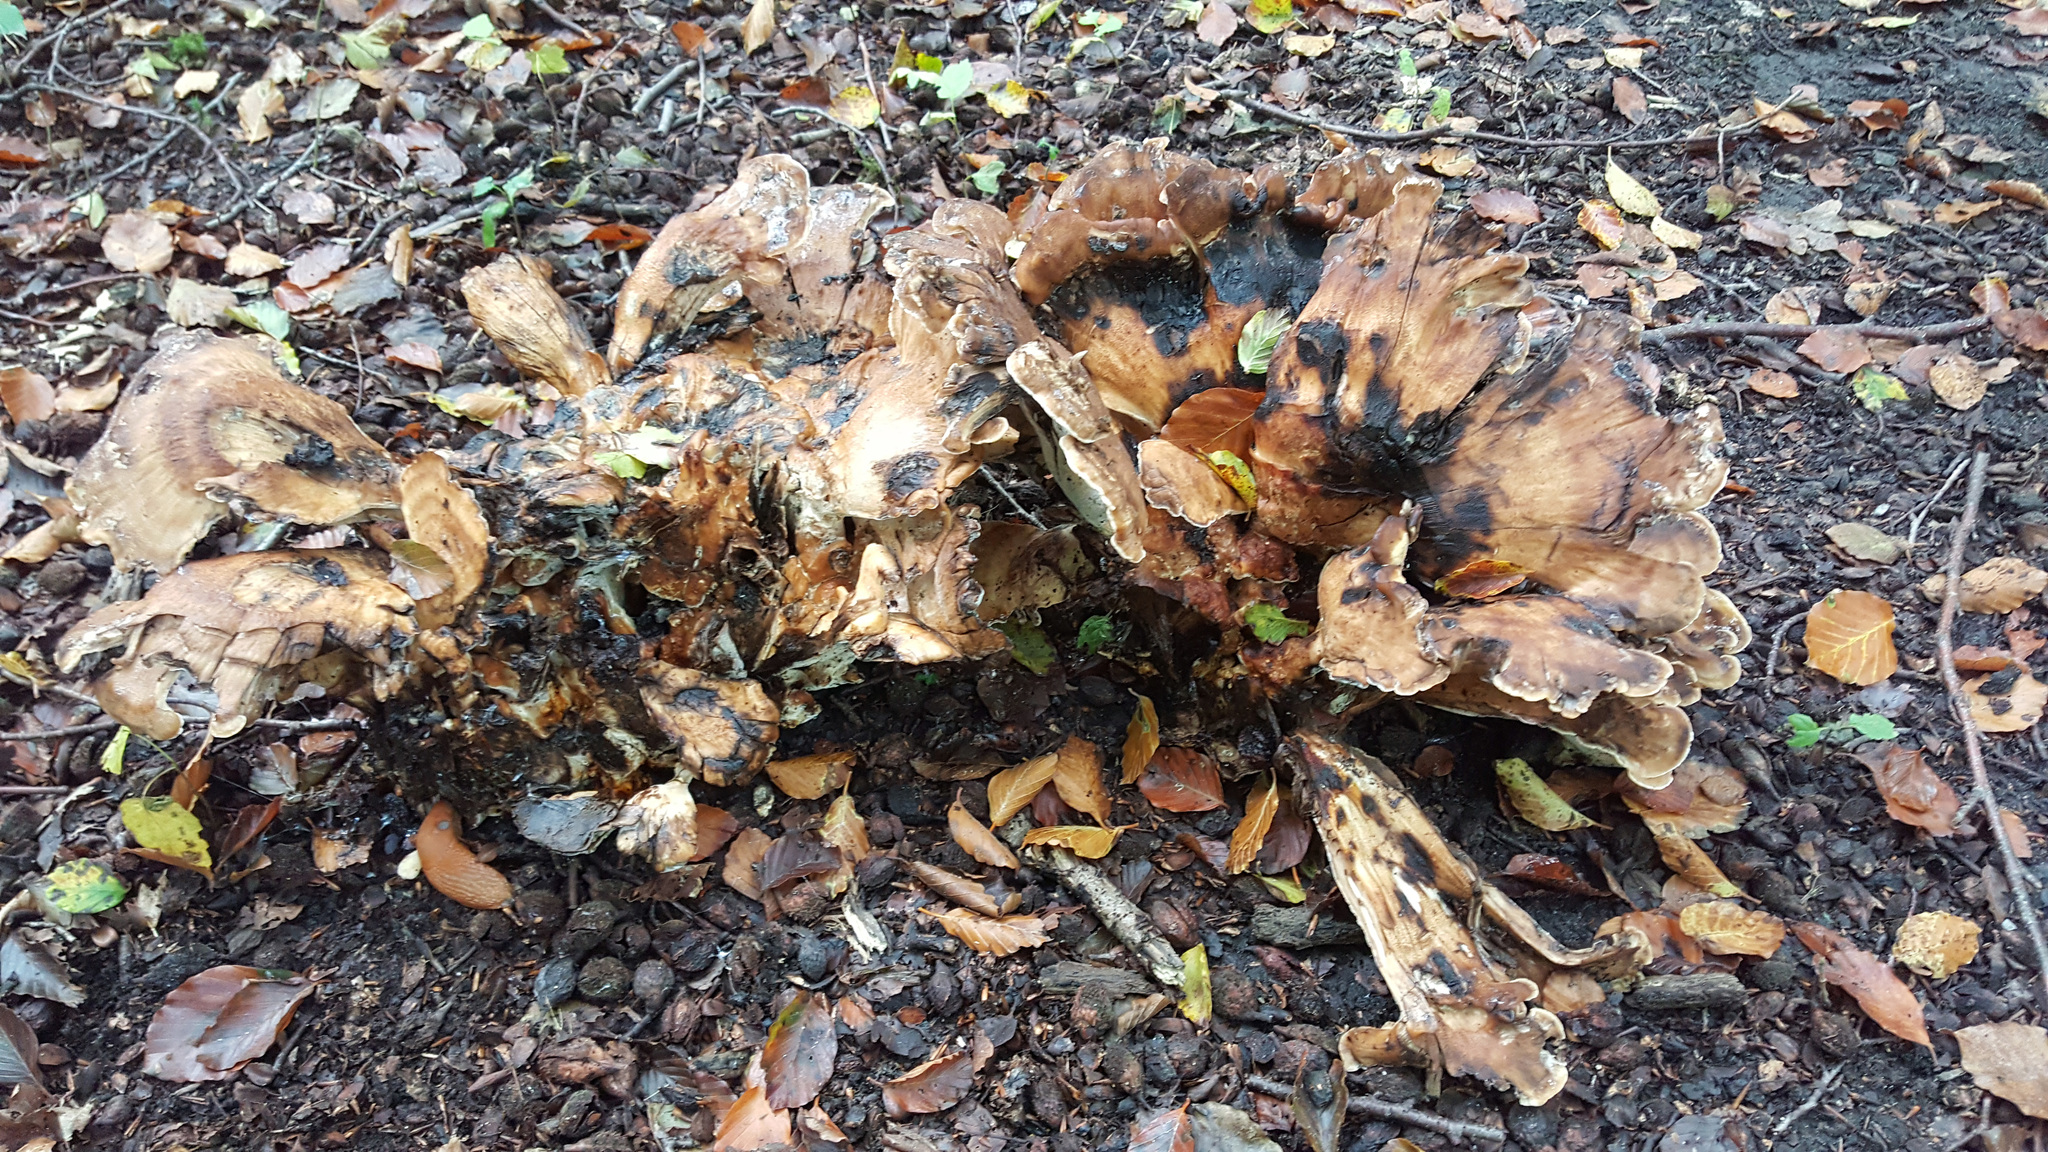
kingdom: Fungi
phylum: Basidiomycota
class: Agaricomycetes
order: Polyporales
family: Meripilaceae
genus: Meripilus
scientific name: Meripilus giganteus
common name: Giant polypore
